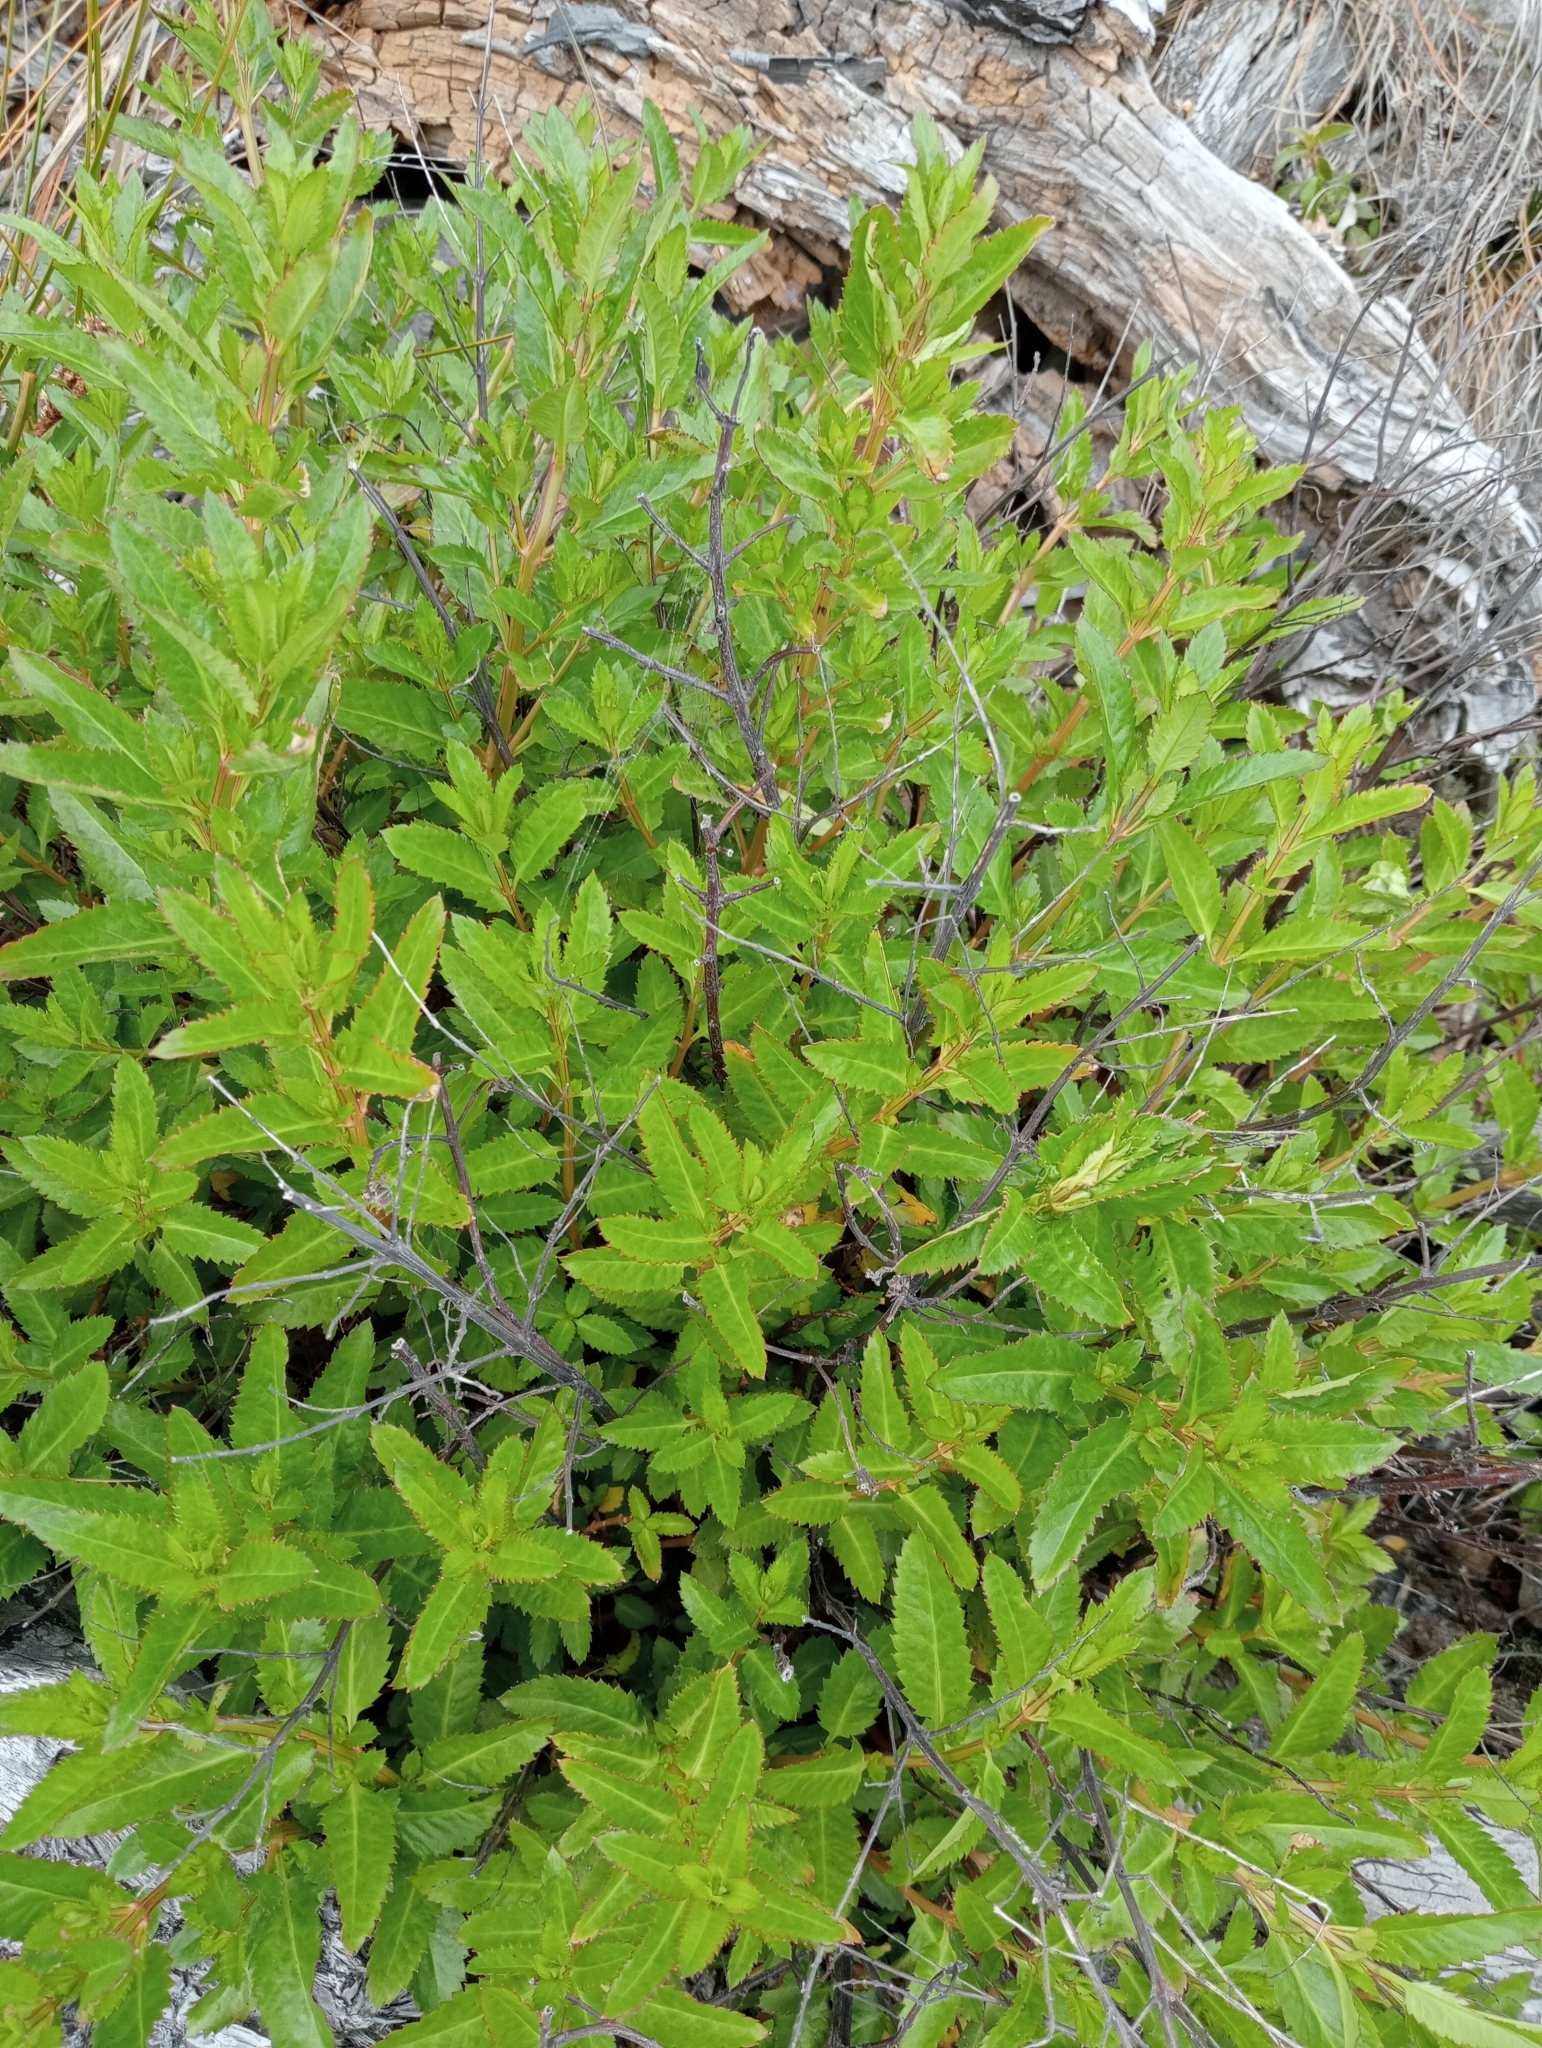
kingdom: Plantae
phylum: Tracheophyta
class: Magnoliopsida
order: Saxifragales
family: Haloragaceae
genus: Haloragis
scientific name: Haloragis erecta
